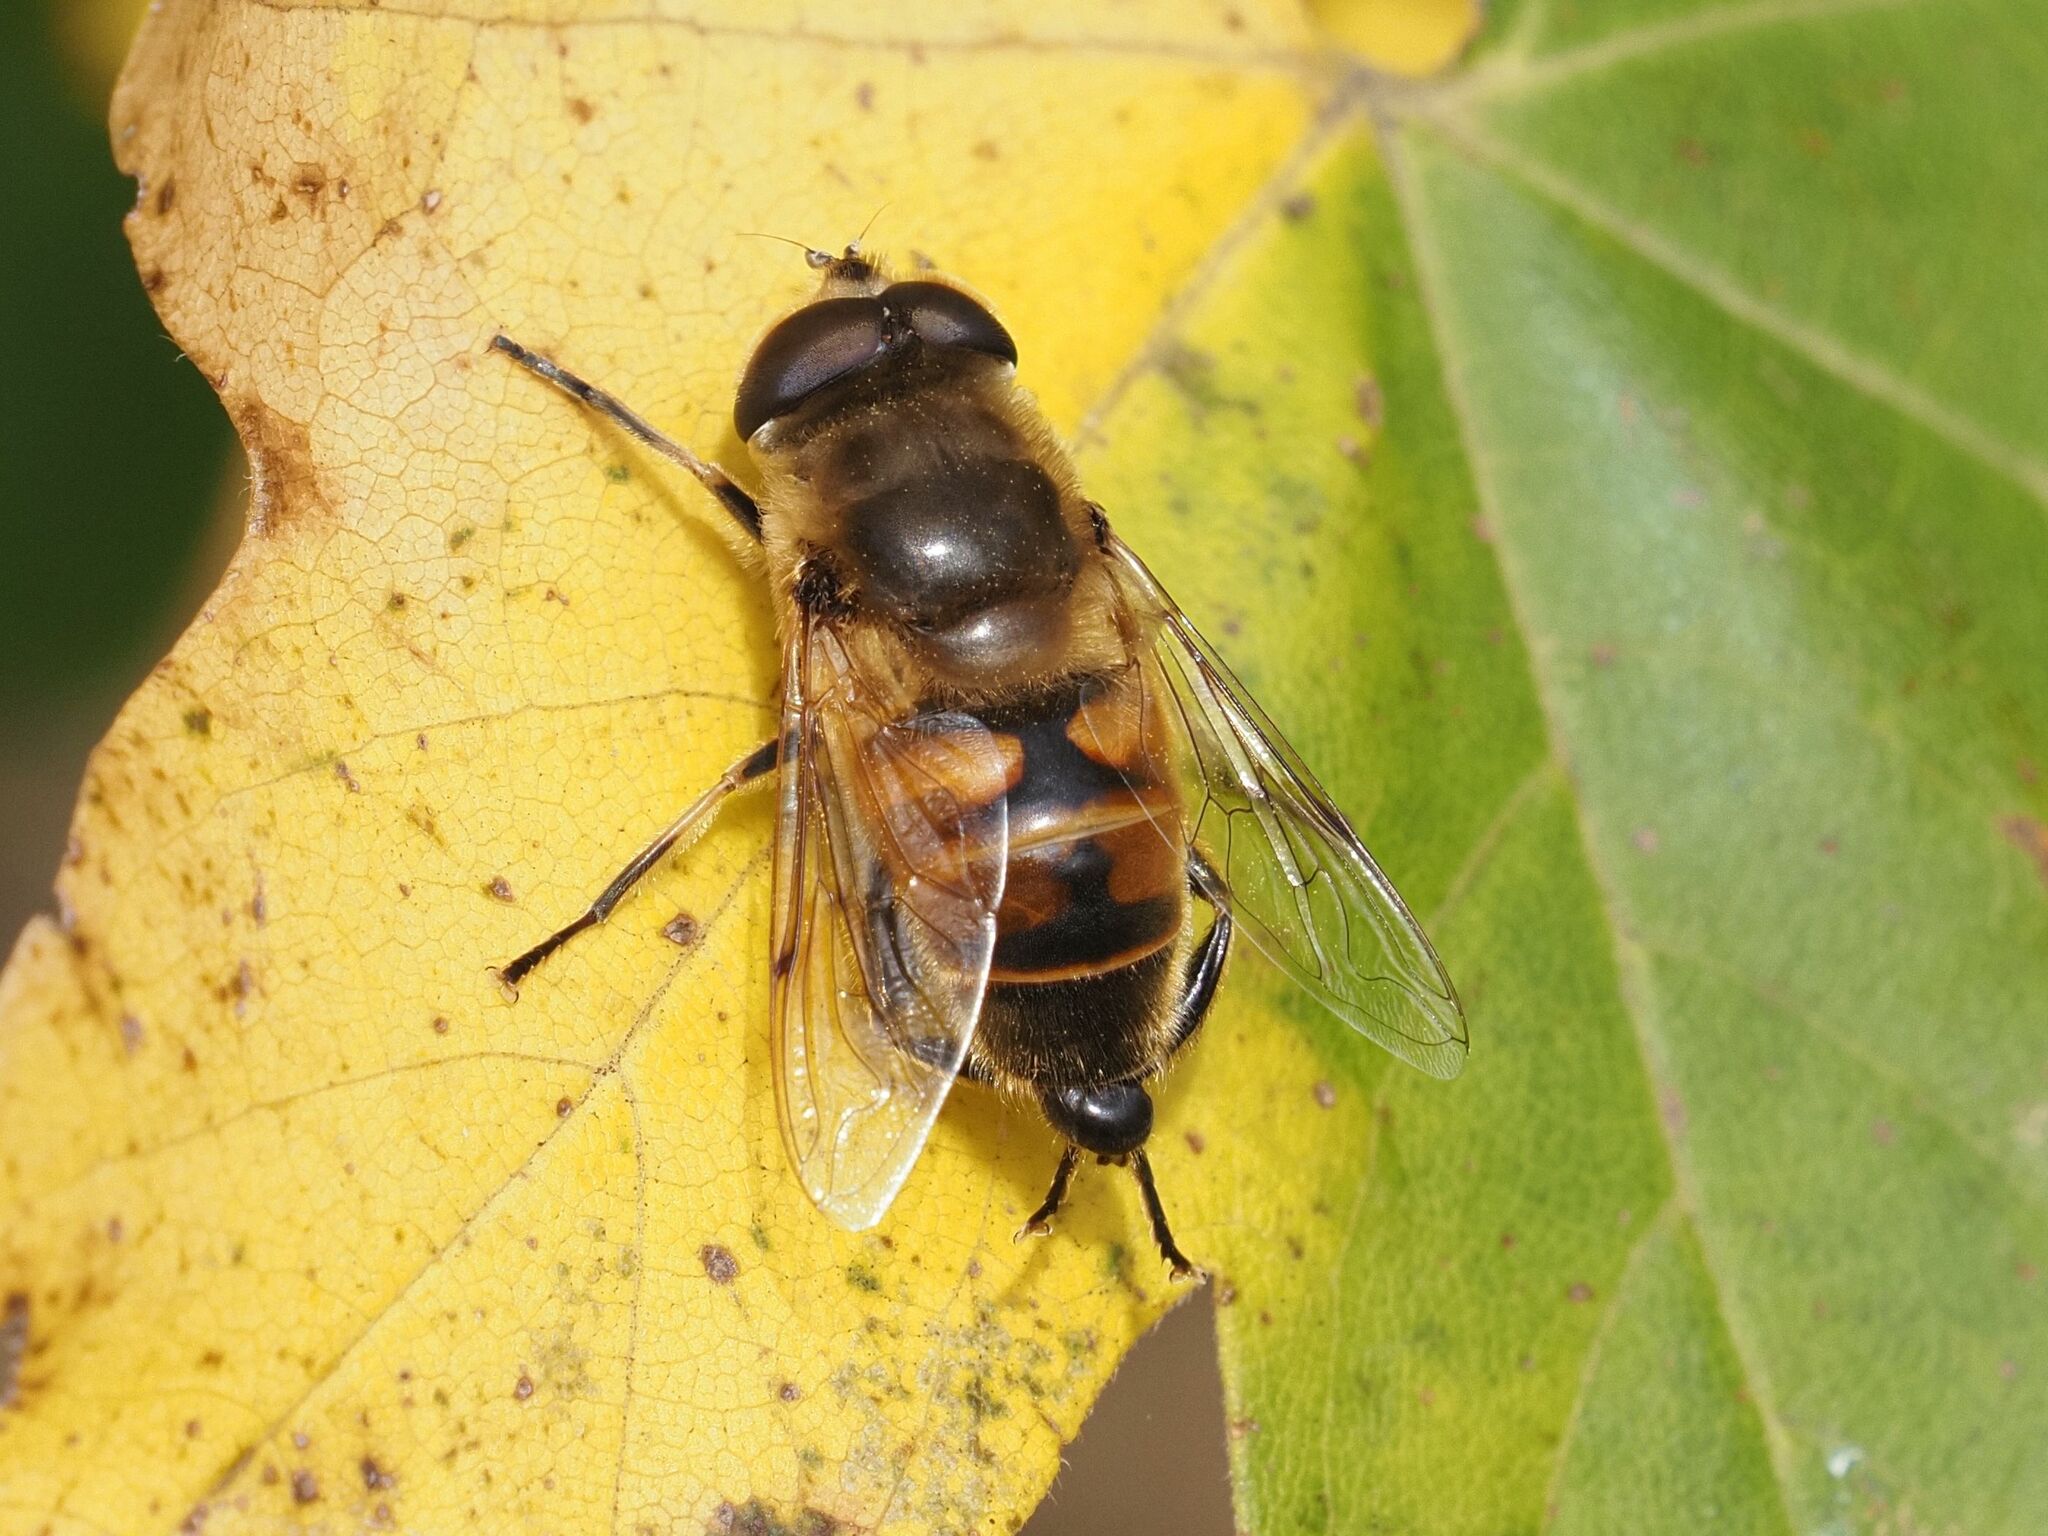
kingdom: Animalia
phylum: Arthropoda
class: Insecta
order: Diptera
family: Syrphidae
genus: Eristalis
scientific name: Eristalis tenax
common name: Drone fly
